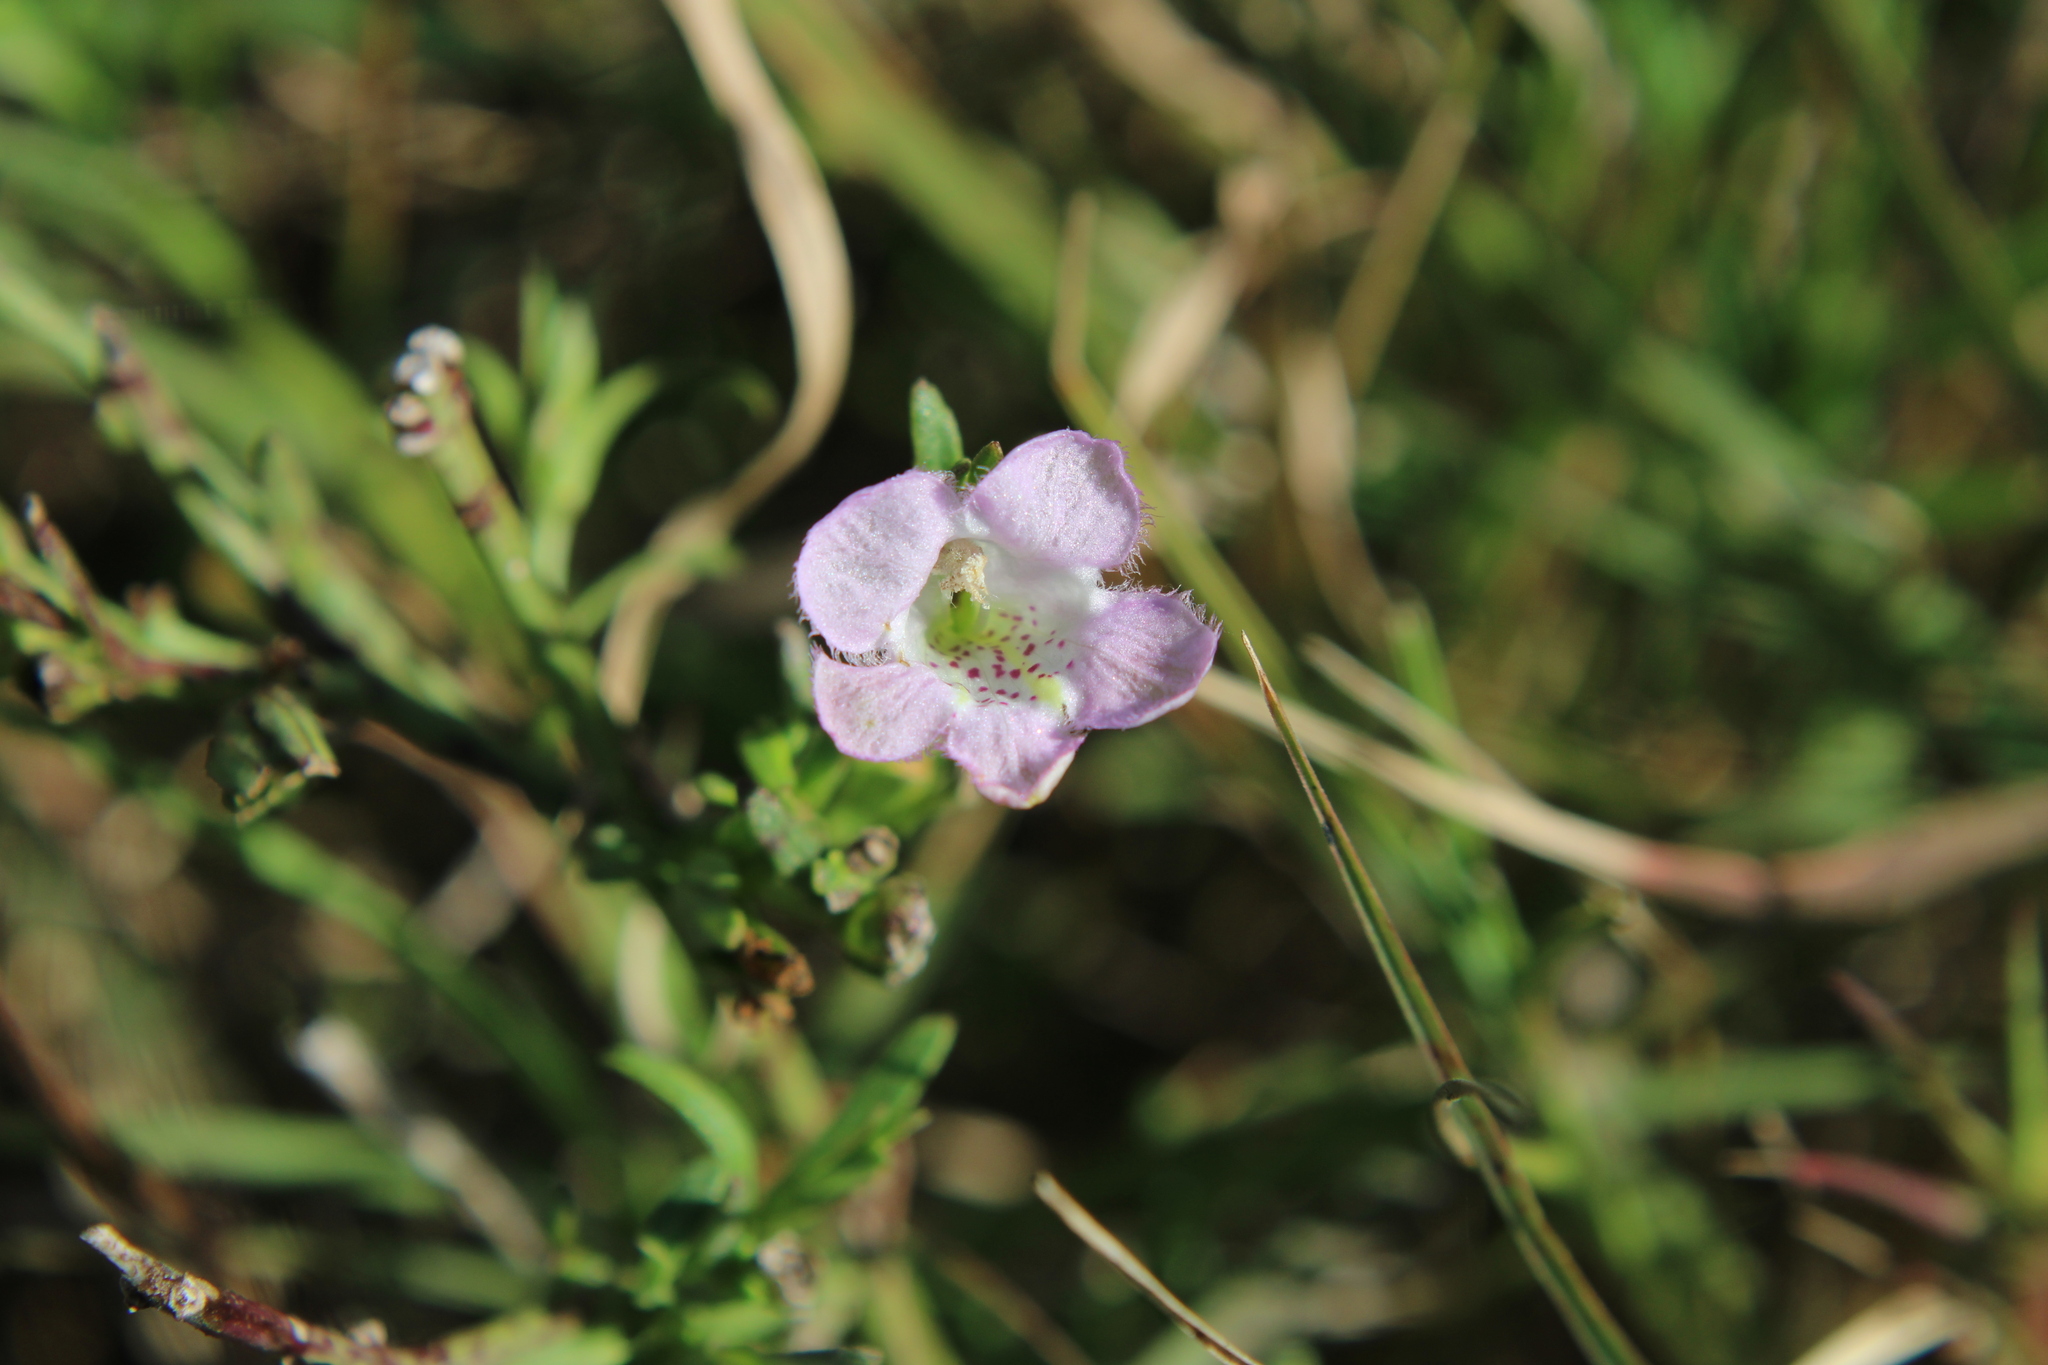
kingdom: Plantae
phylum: Tracheophyta
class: Magnoliopsida
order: Lamiales
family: Orobanchaceae
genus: Agalinis
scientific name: Agalinis communis
